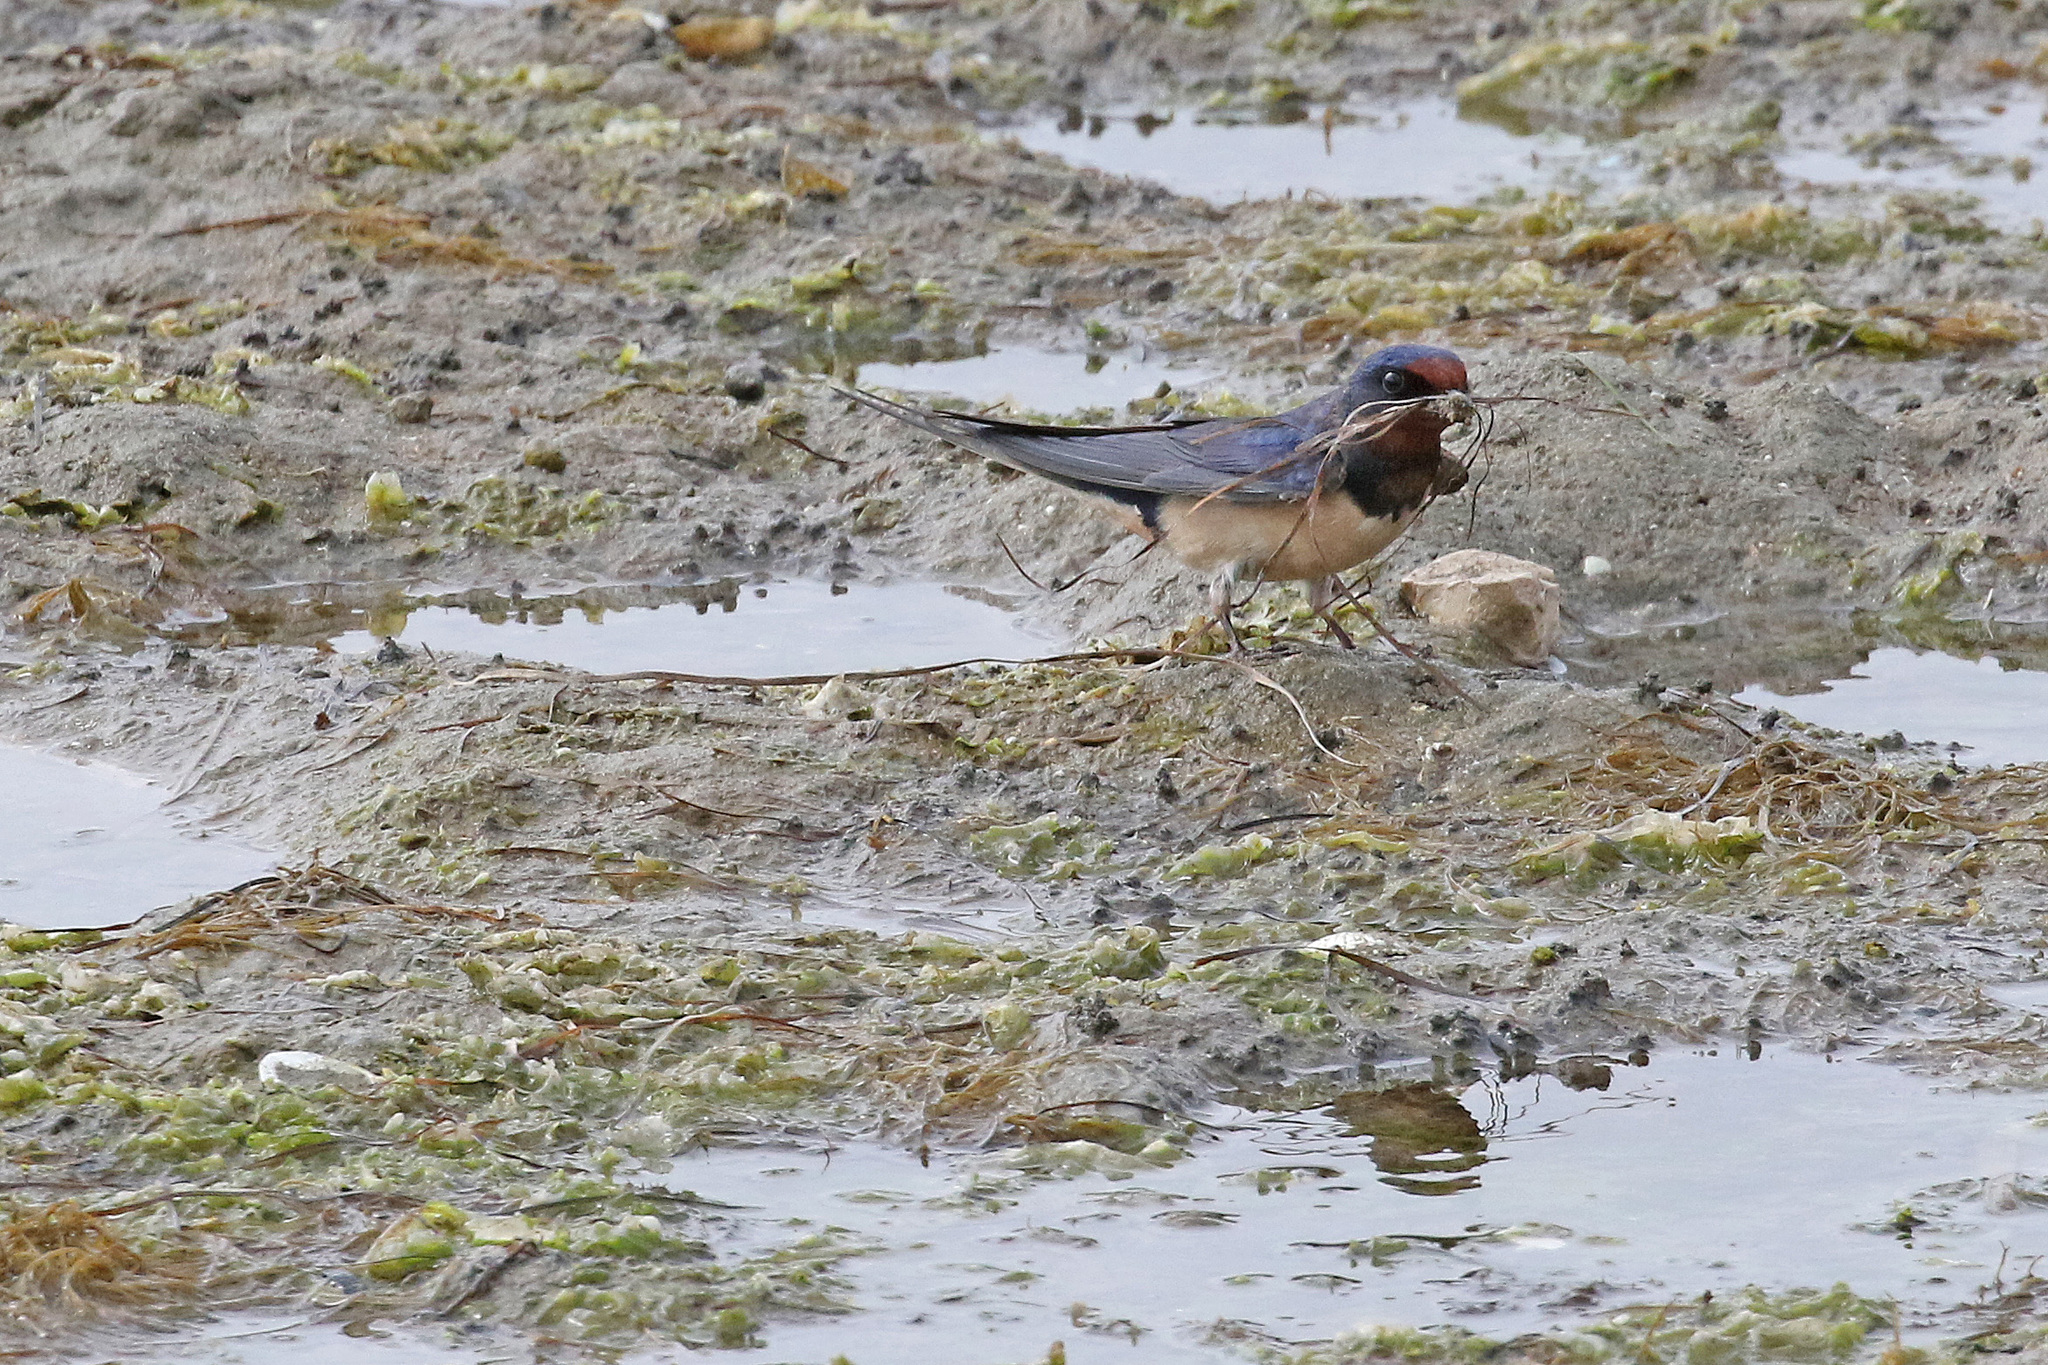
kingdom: Animalia
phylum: Chordata
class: Aves
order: Passeriformes
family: Hirundinidae
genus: Hirundo
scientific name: Hirundo rustica
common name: Barn swallow
